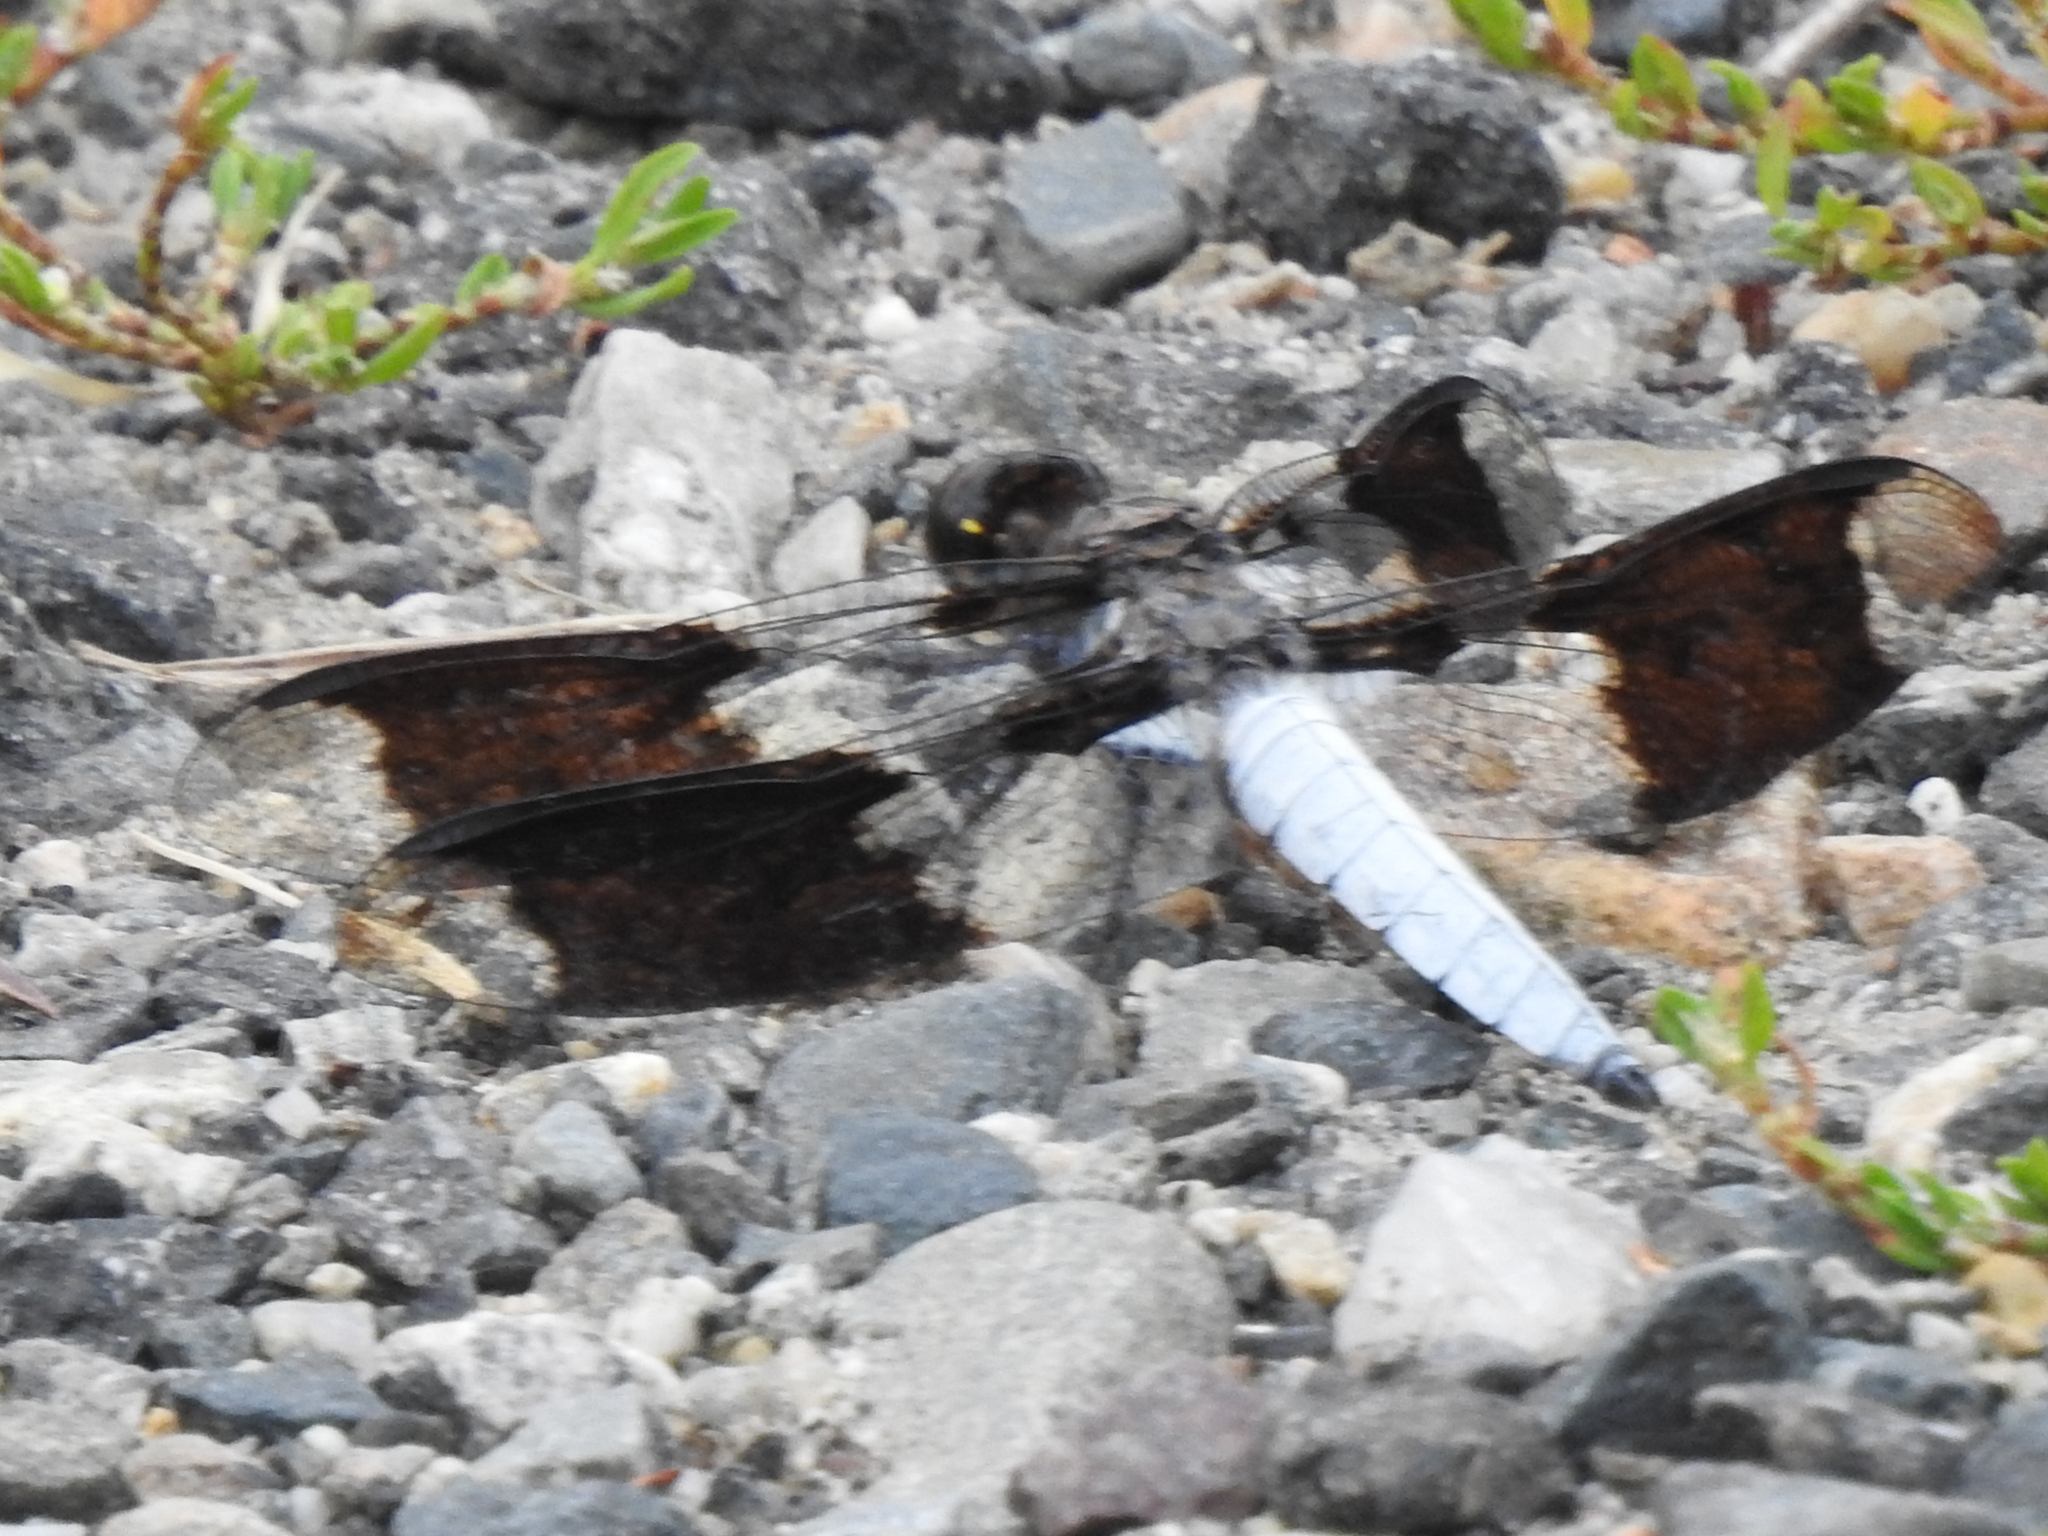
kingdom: Animalia
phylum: Arthropoda
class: Insecta
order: Odonata
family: Libellulidae
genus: Plathemis
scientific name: Plathemis lydia
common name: Common whitetail
